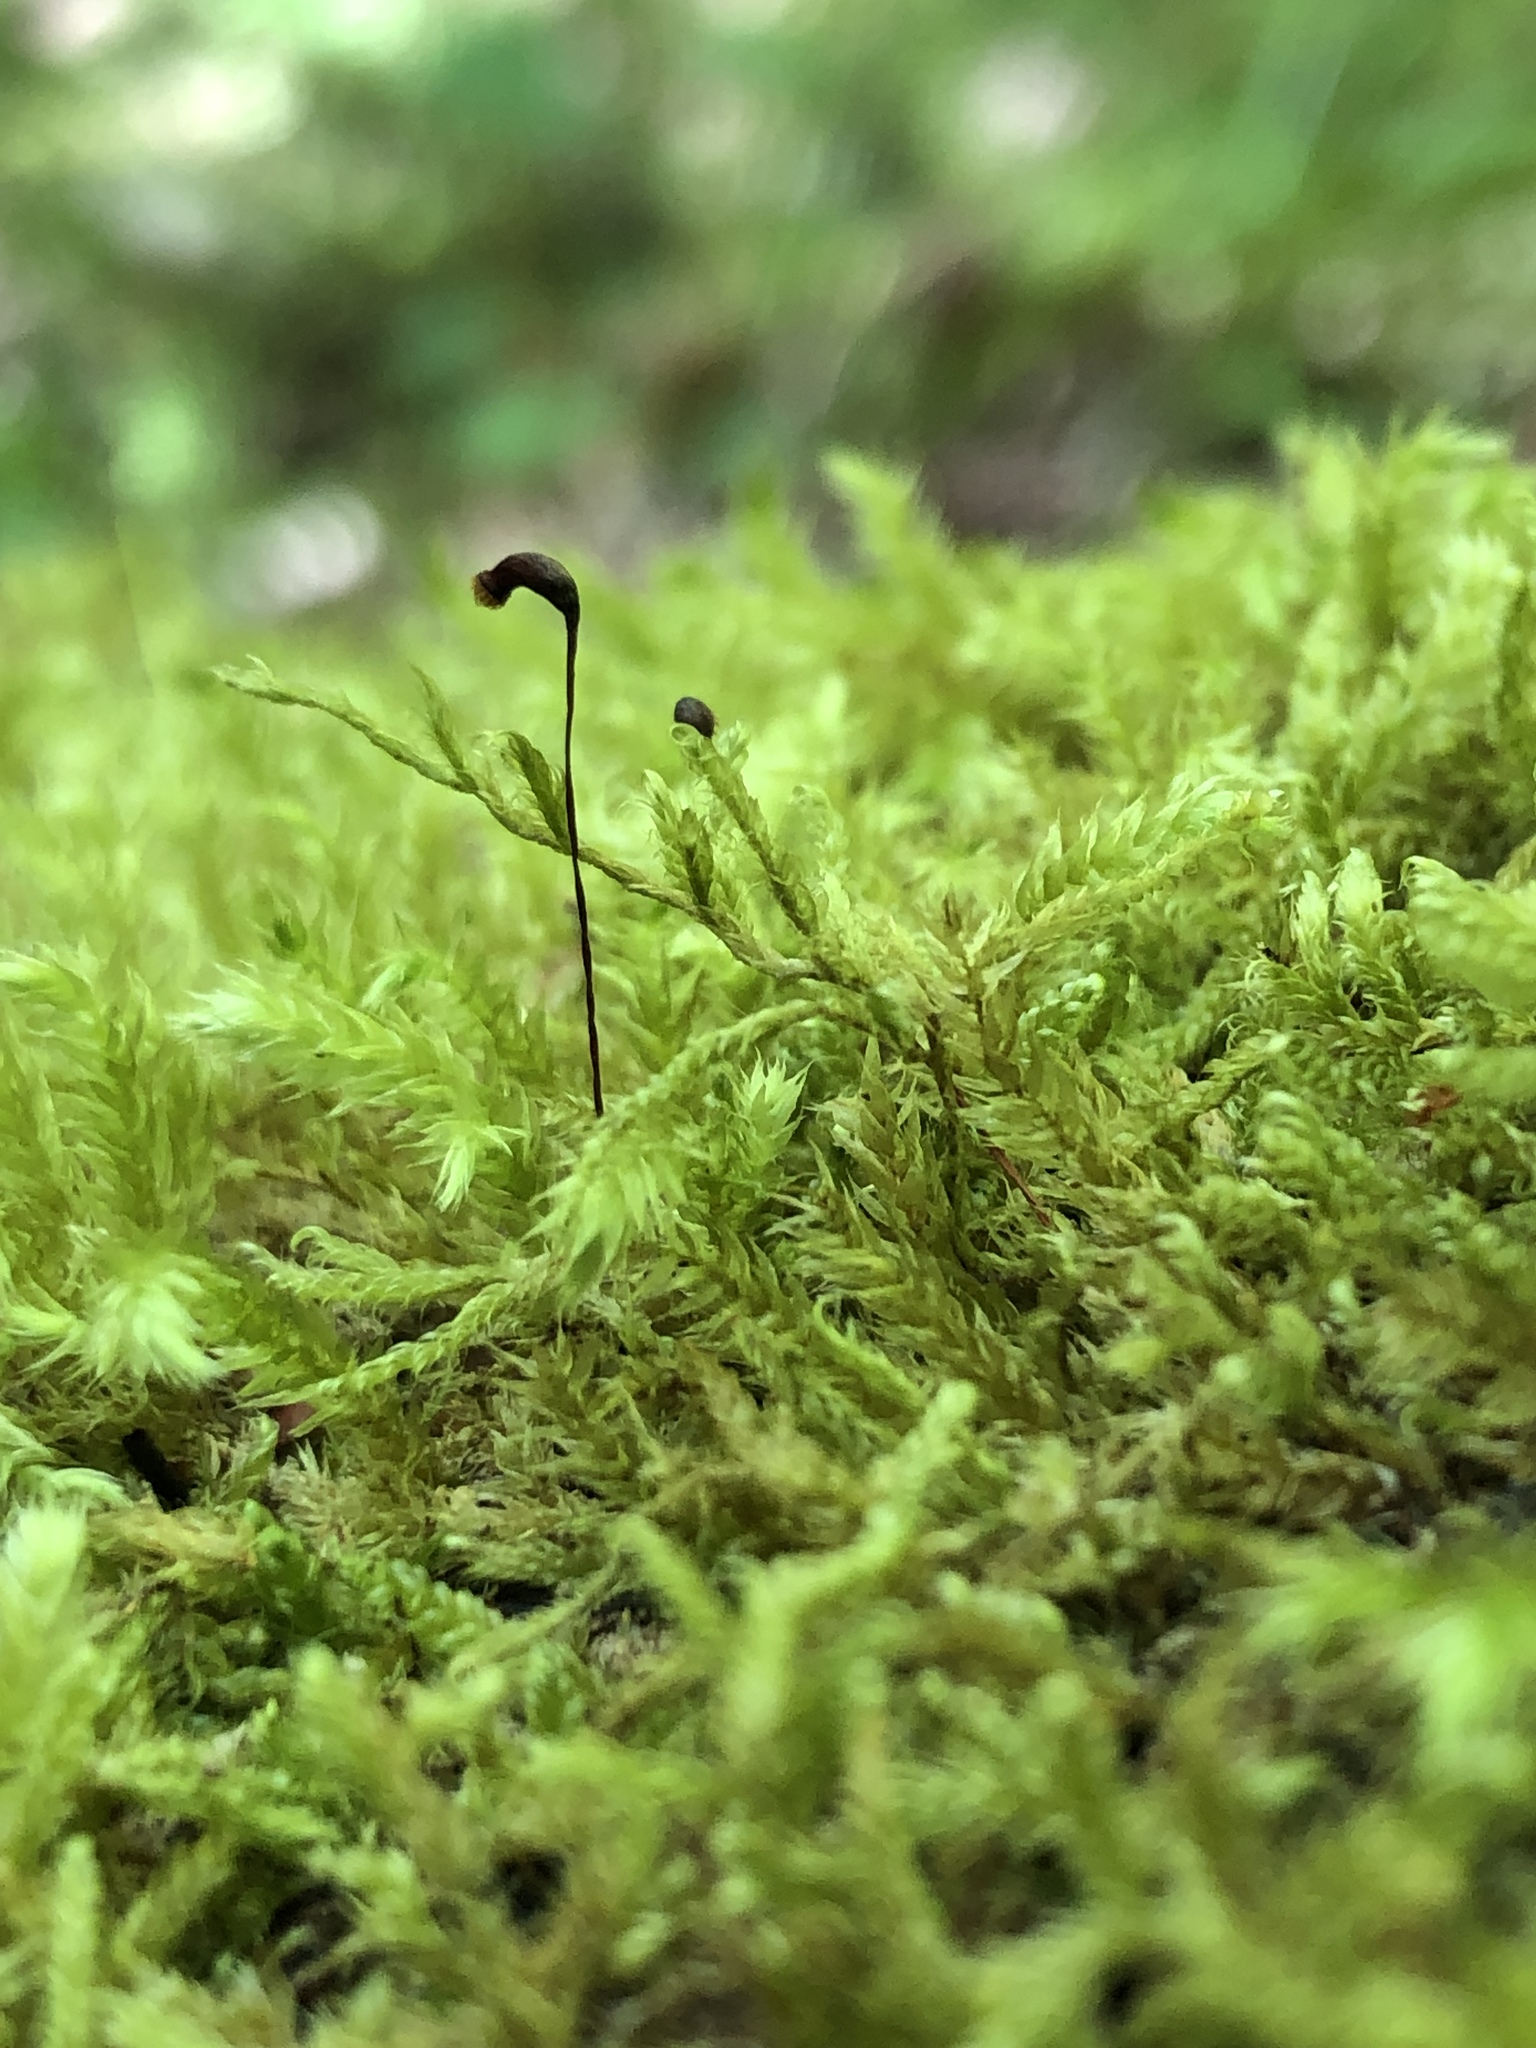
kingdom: Plantae
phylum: Bryophyta
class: Bryopsida
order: Hypnales
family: Hypnaceae
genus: Hypnum
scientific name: Hypnum cupressiforme
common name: Cypress-leaved plait-moss
